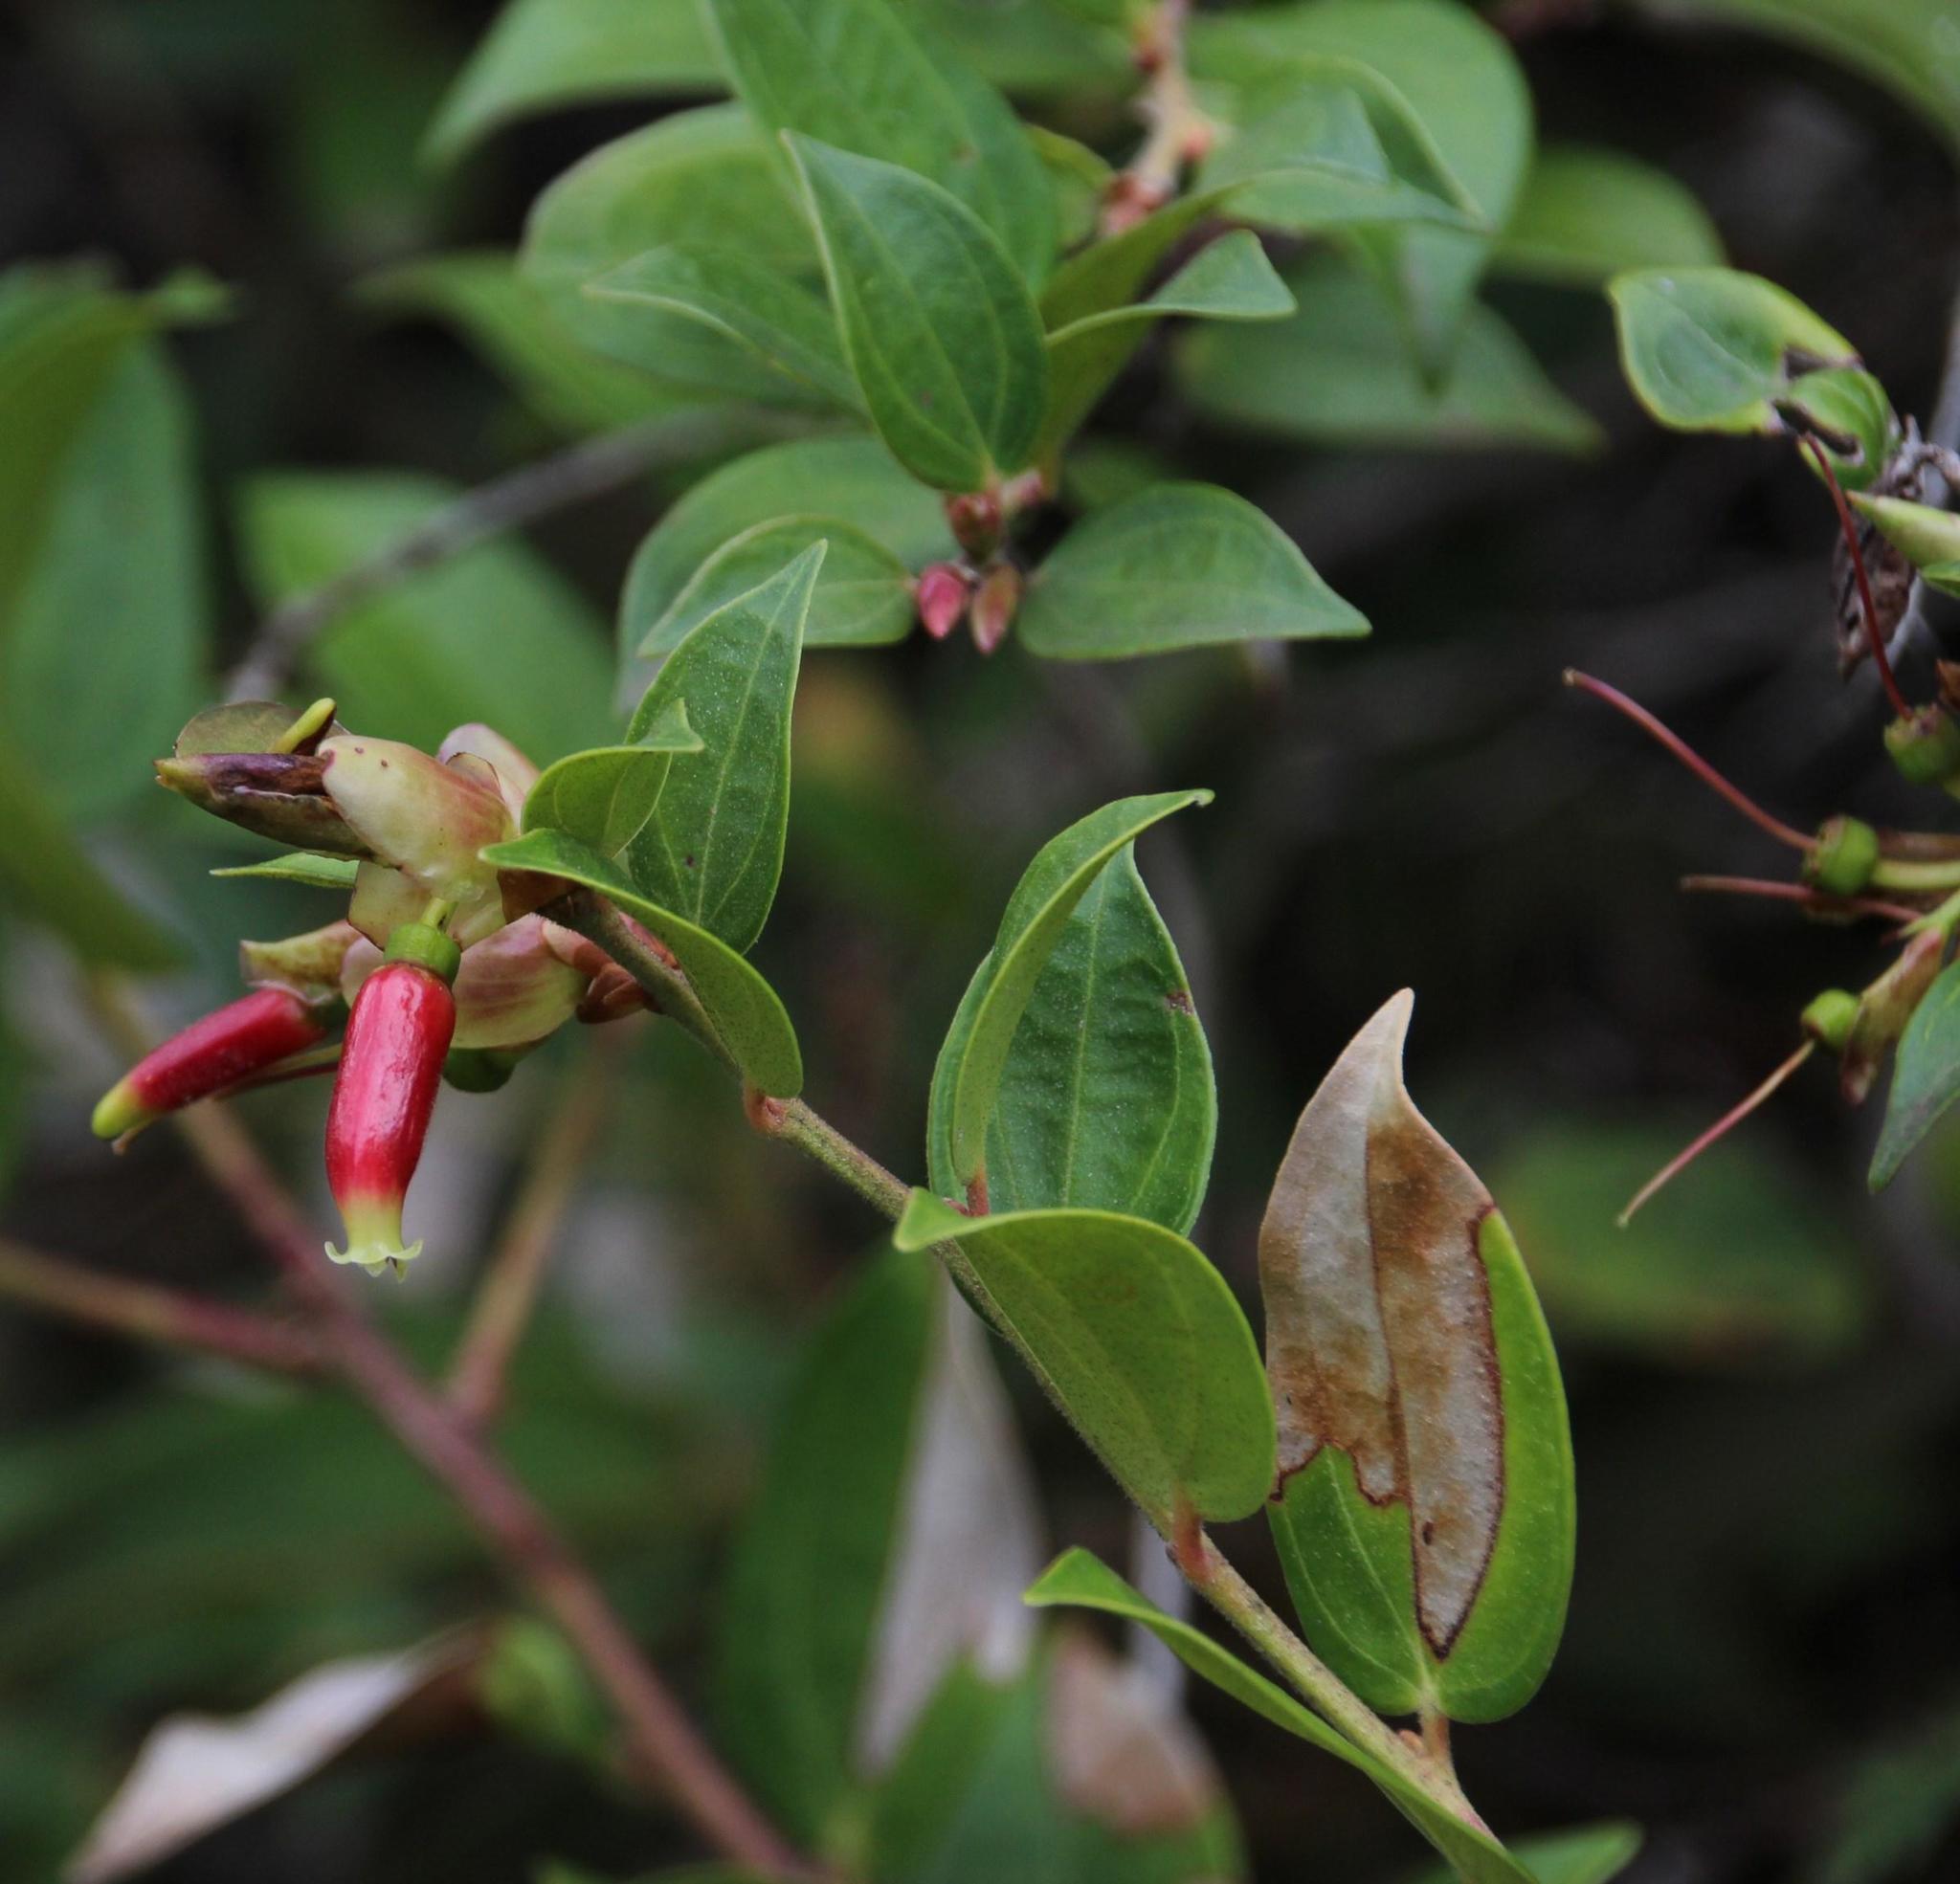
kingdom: Plantae
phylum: Tracheophyta
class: Magnoliopsida
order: Ericales
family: Ericaceae
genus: Cavendishia
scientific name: Cavendishia bracteata
